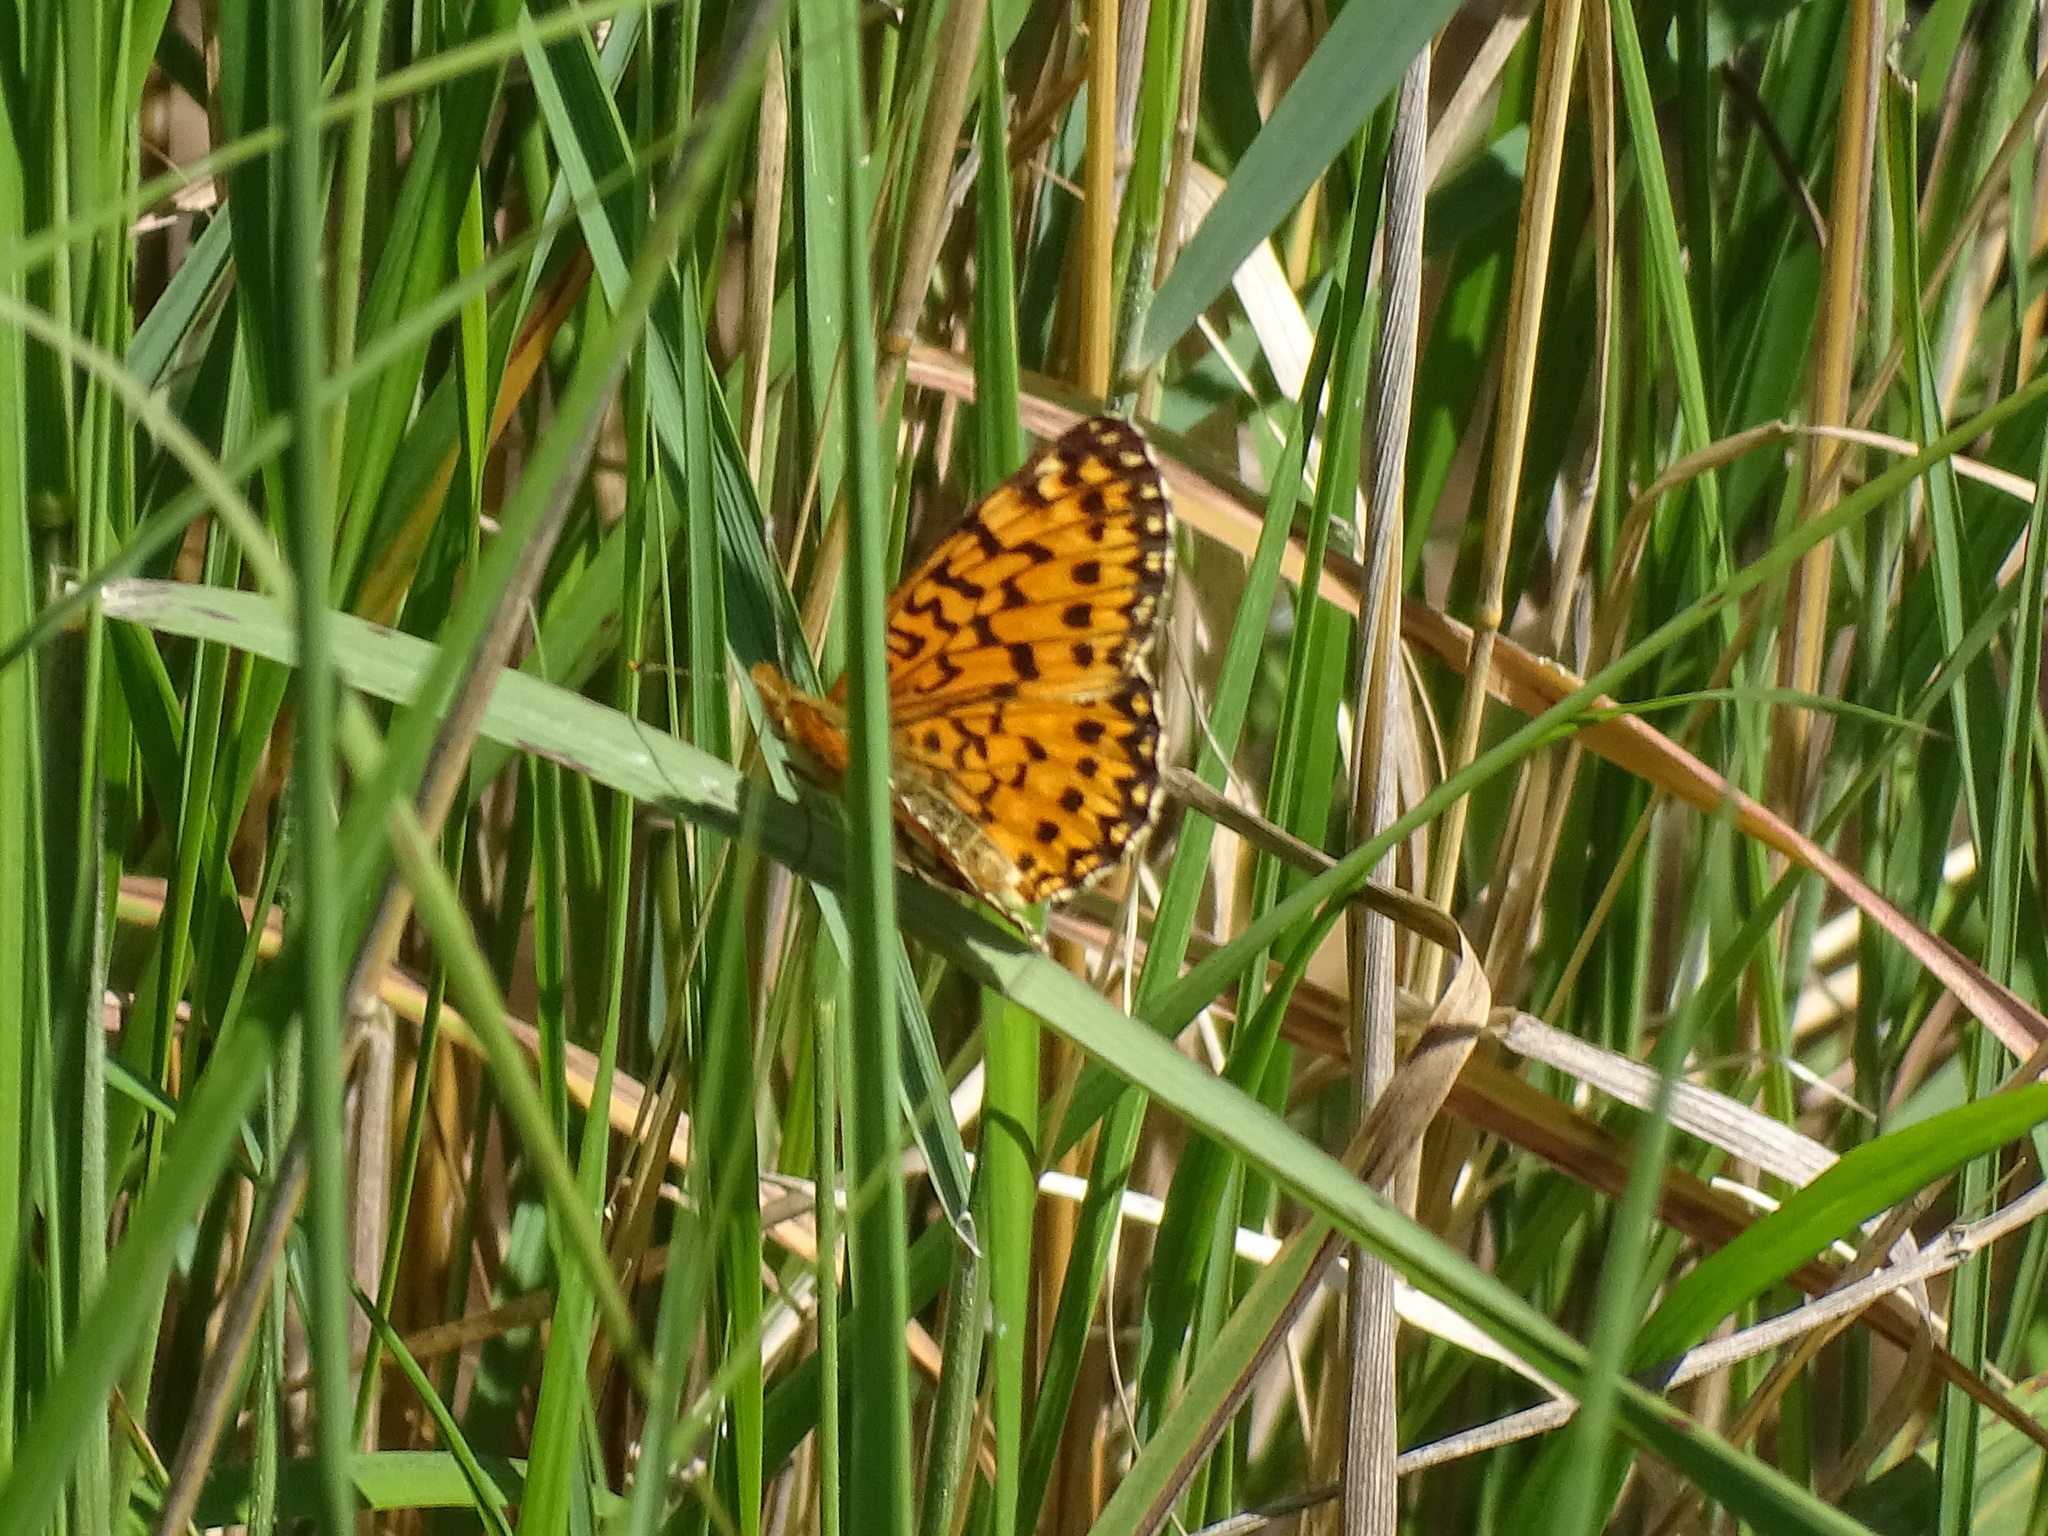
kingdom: Animalia
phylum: Arthropoda
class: Insecta
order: Lepidoptera
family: Nymphalidae
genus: Boloria
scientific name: Boloria
